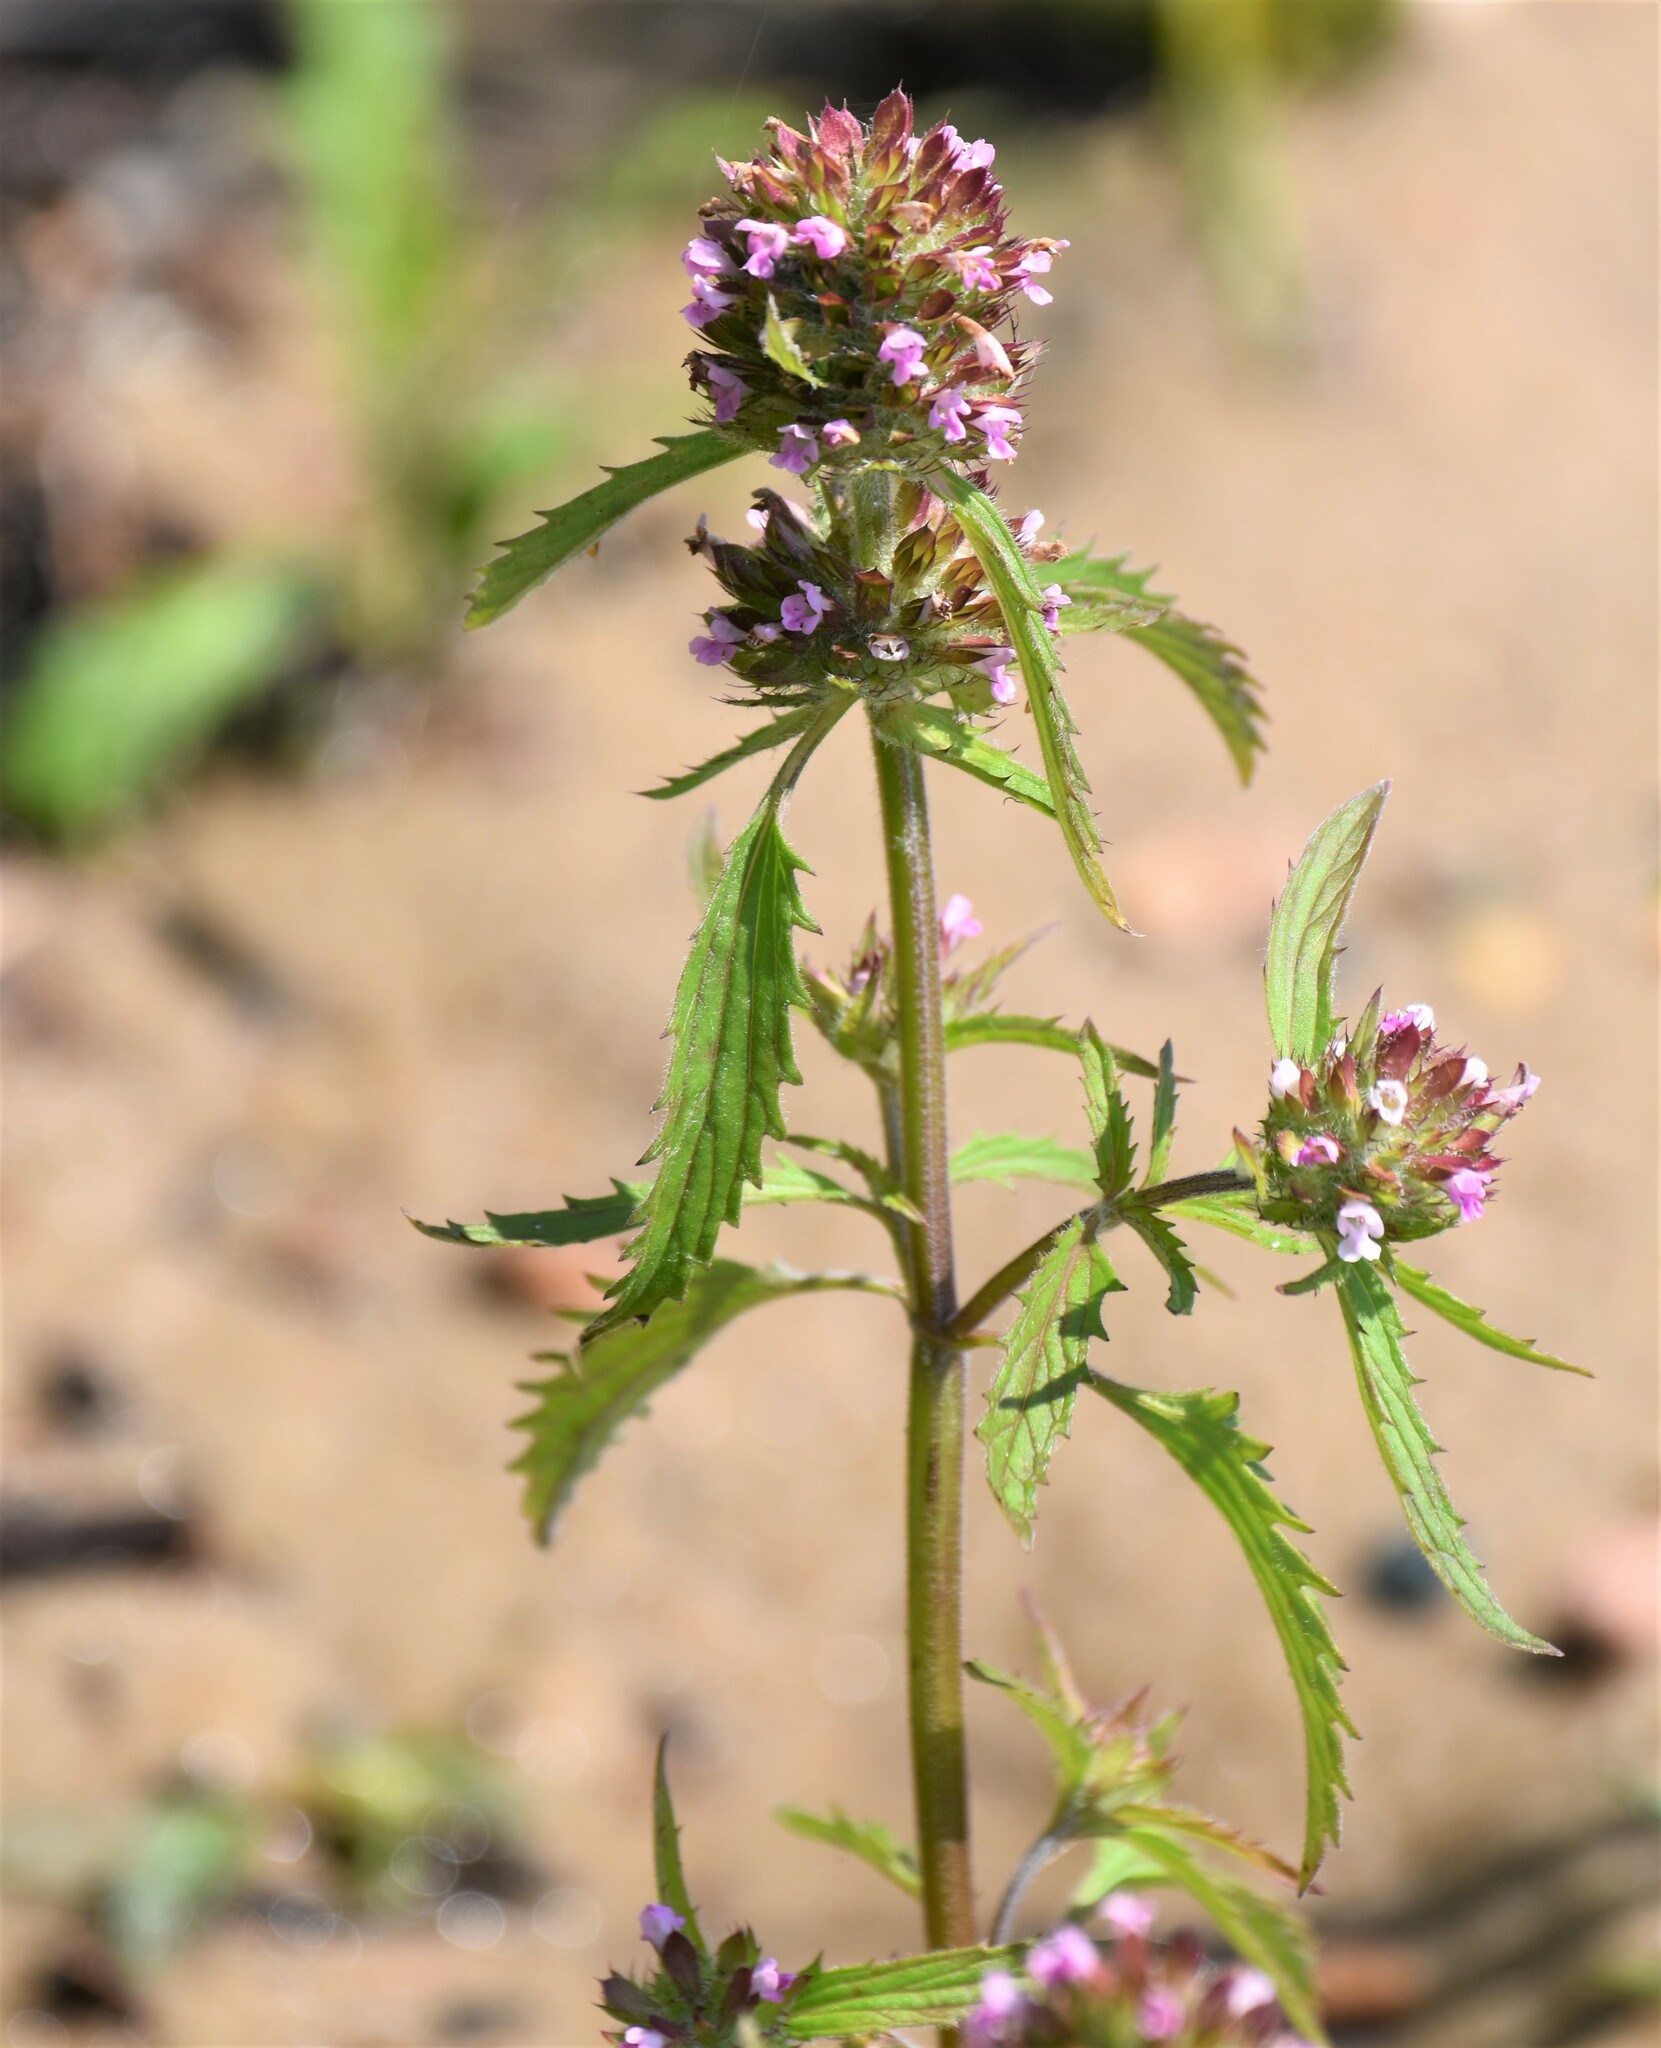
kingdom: Plantae
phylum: Tracheophyta
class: Magnoliopsida
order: Lamiales
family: Lamiaceae
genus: Dracocephalum
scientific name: Dracocephalum parviflorum
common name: American dragonhead
